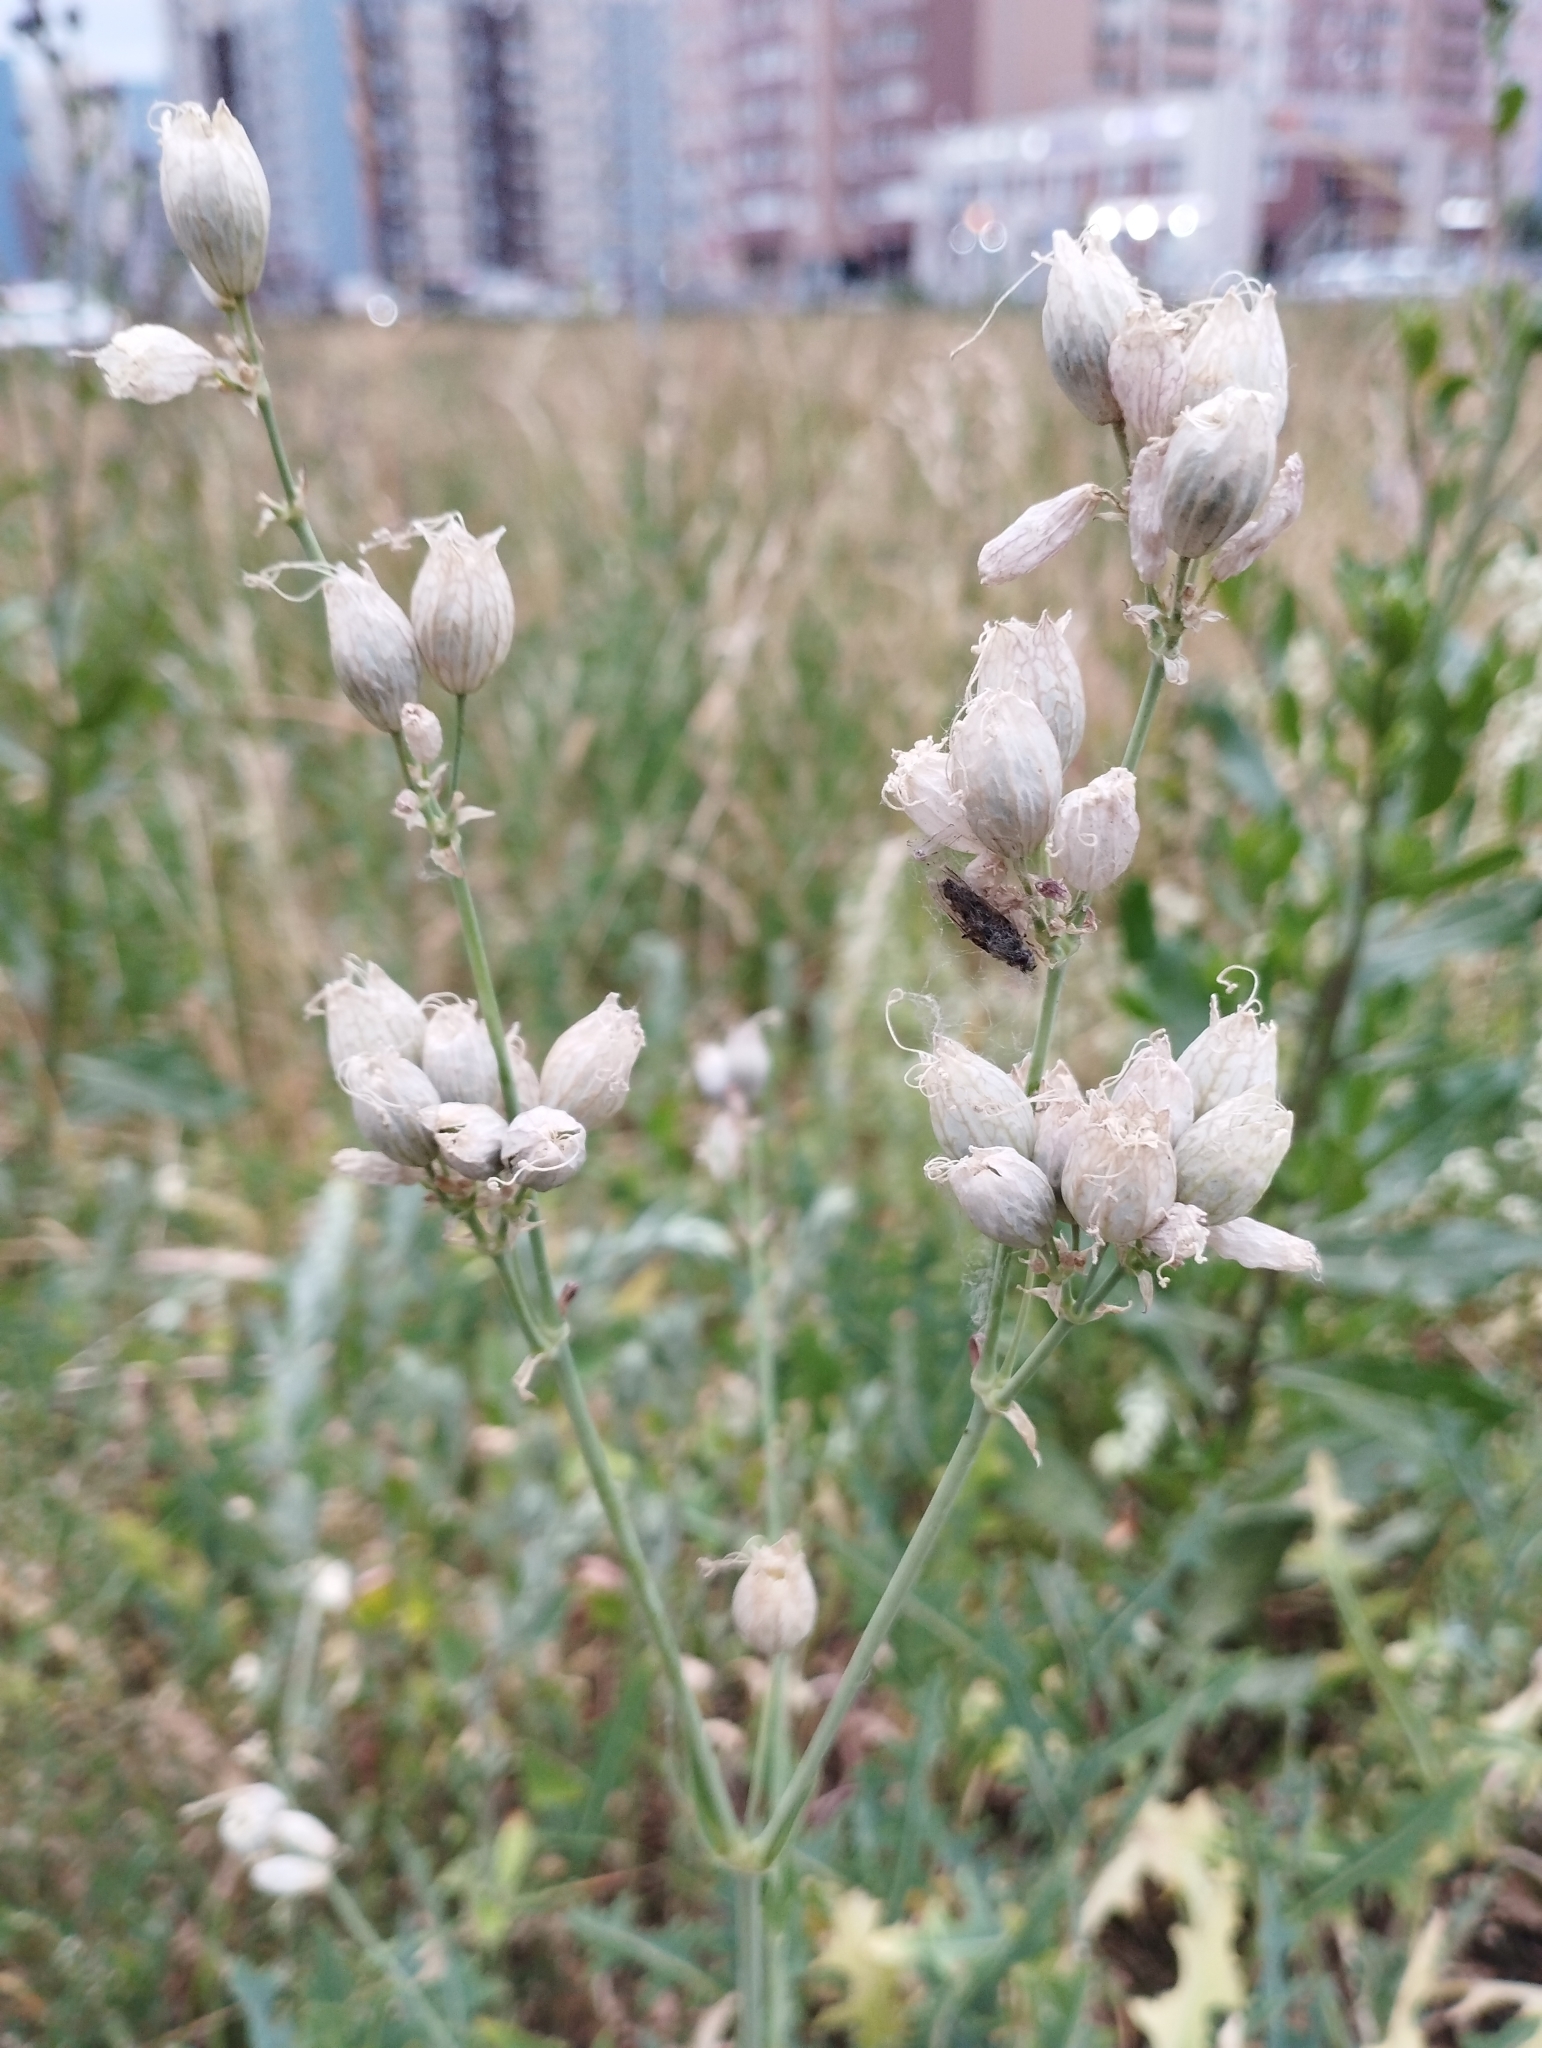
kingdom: Plantae
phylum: Tracheophyta
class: Magnoliopsida
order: Caryophyllales
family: Caryophyllaceae
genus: Silene
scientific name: Silene vulgaris
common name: Bladder campion
